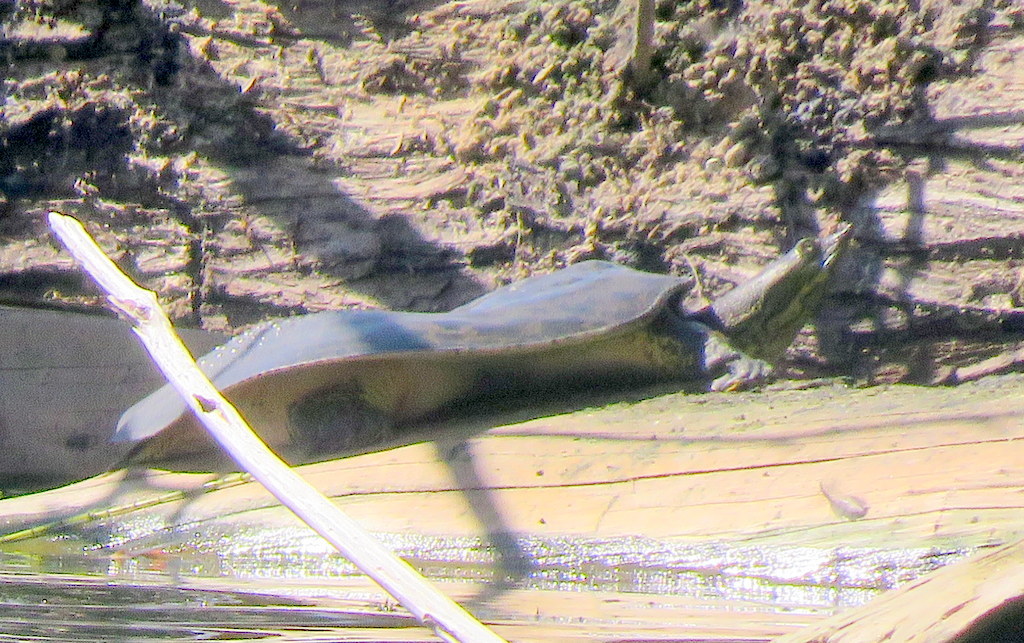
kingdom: Animalia
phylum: Chordata
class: Testudines
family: Trionychidae
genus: Apalone
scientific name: Apalone spinifera
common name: Spiny softshell turtle
